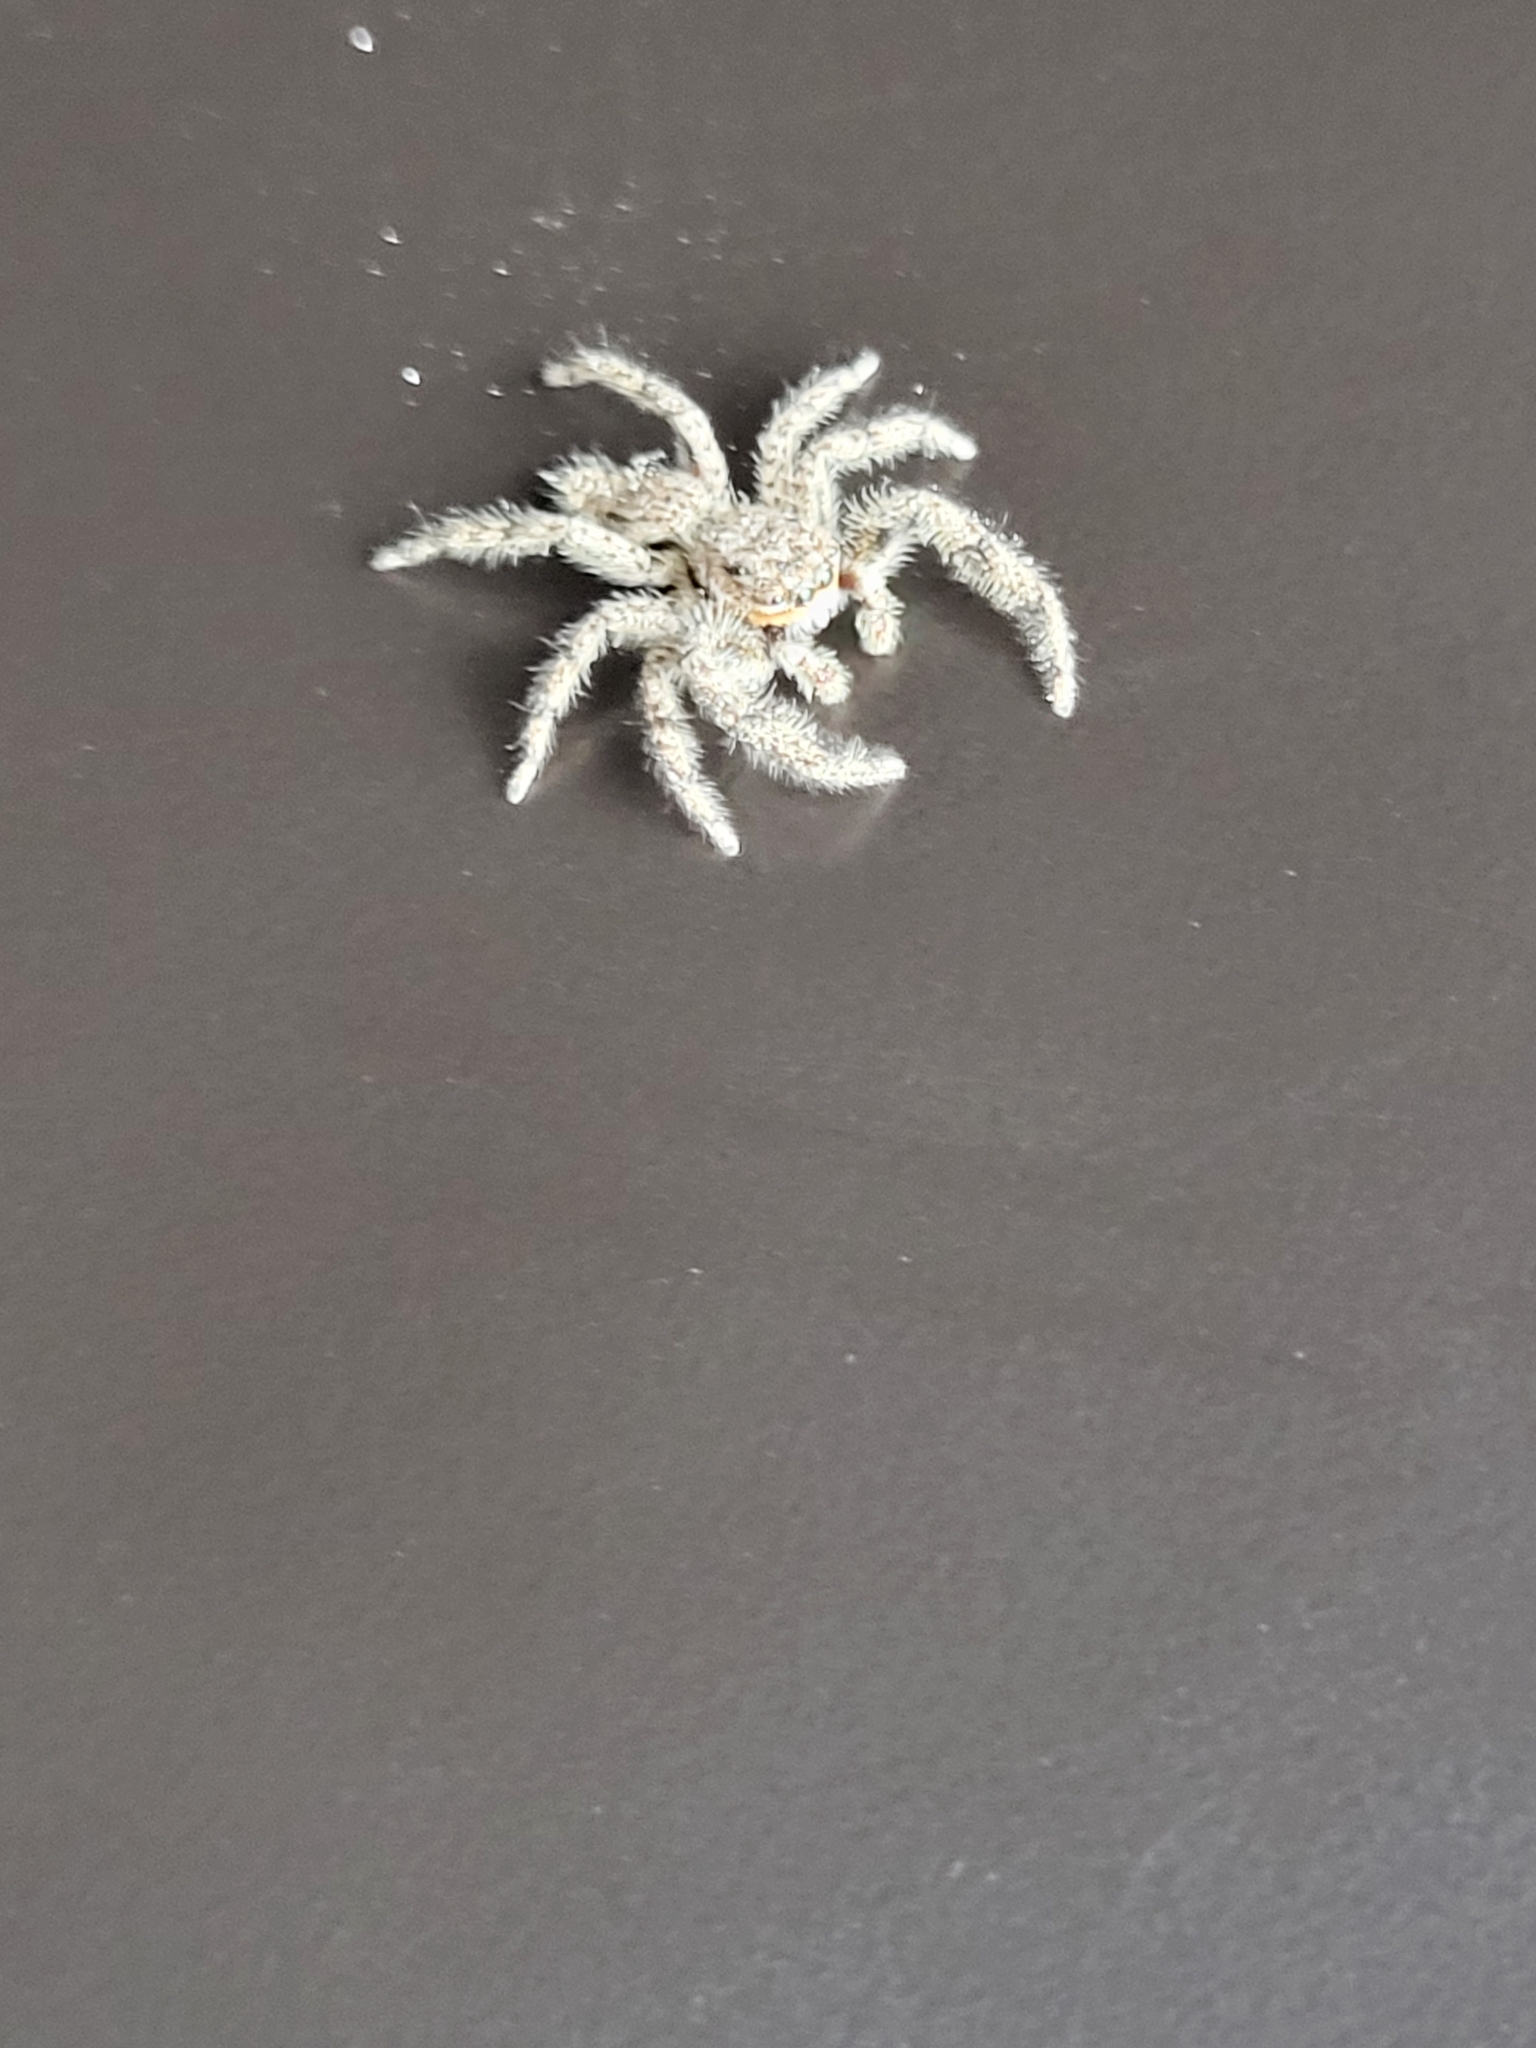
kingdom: Animalia
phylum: Arthropoda
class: Arachnida
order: Araneae
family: Salticidae
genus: Platycryptus
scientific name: Platycryptus undatus
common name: Tan jumping spider
